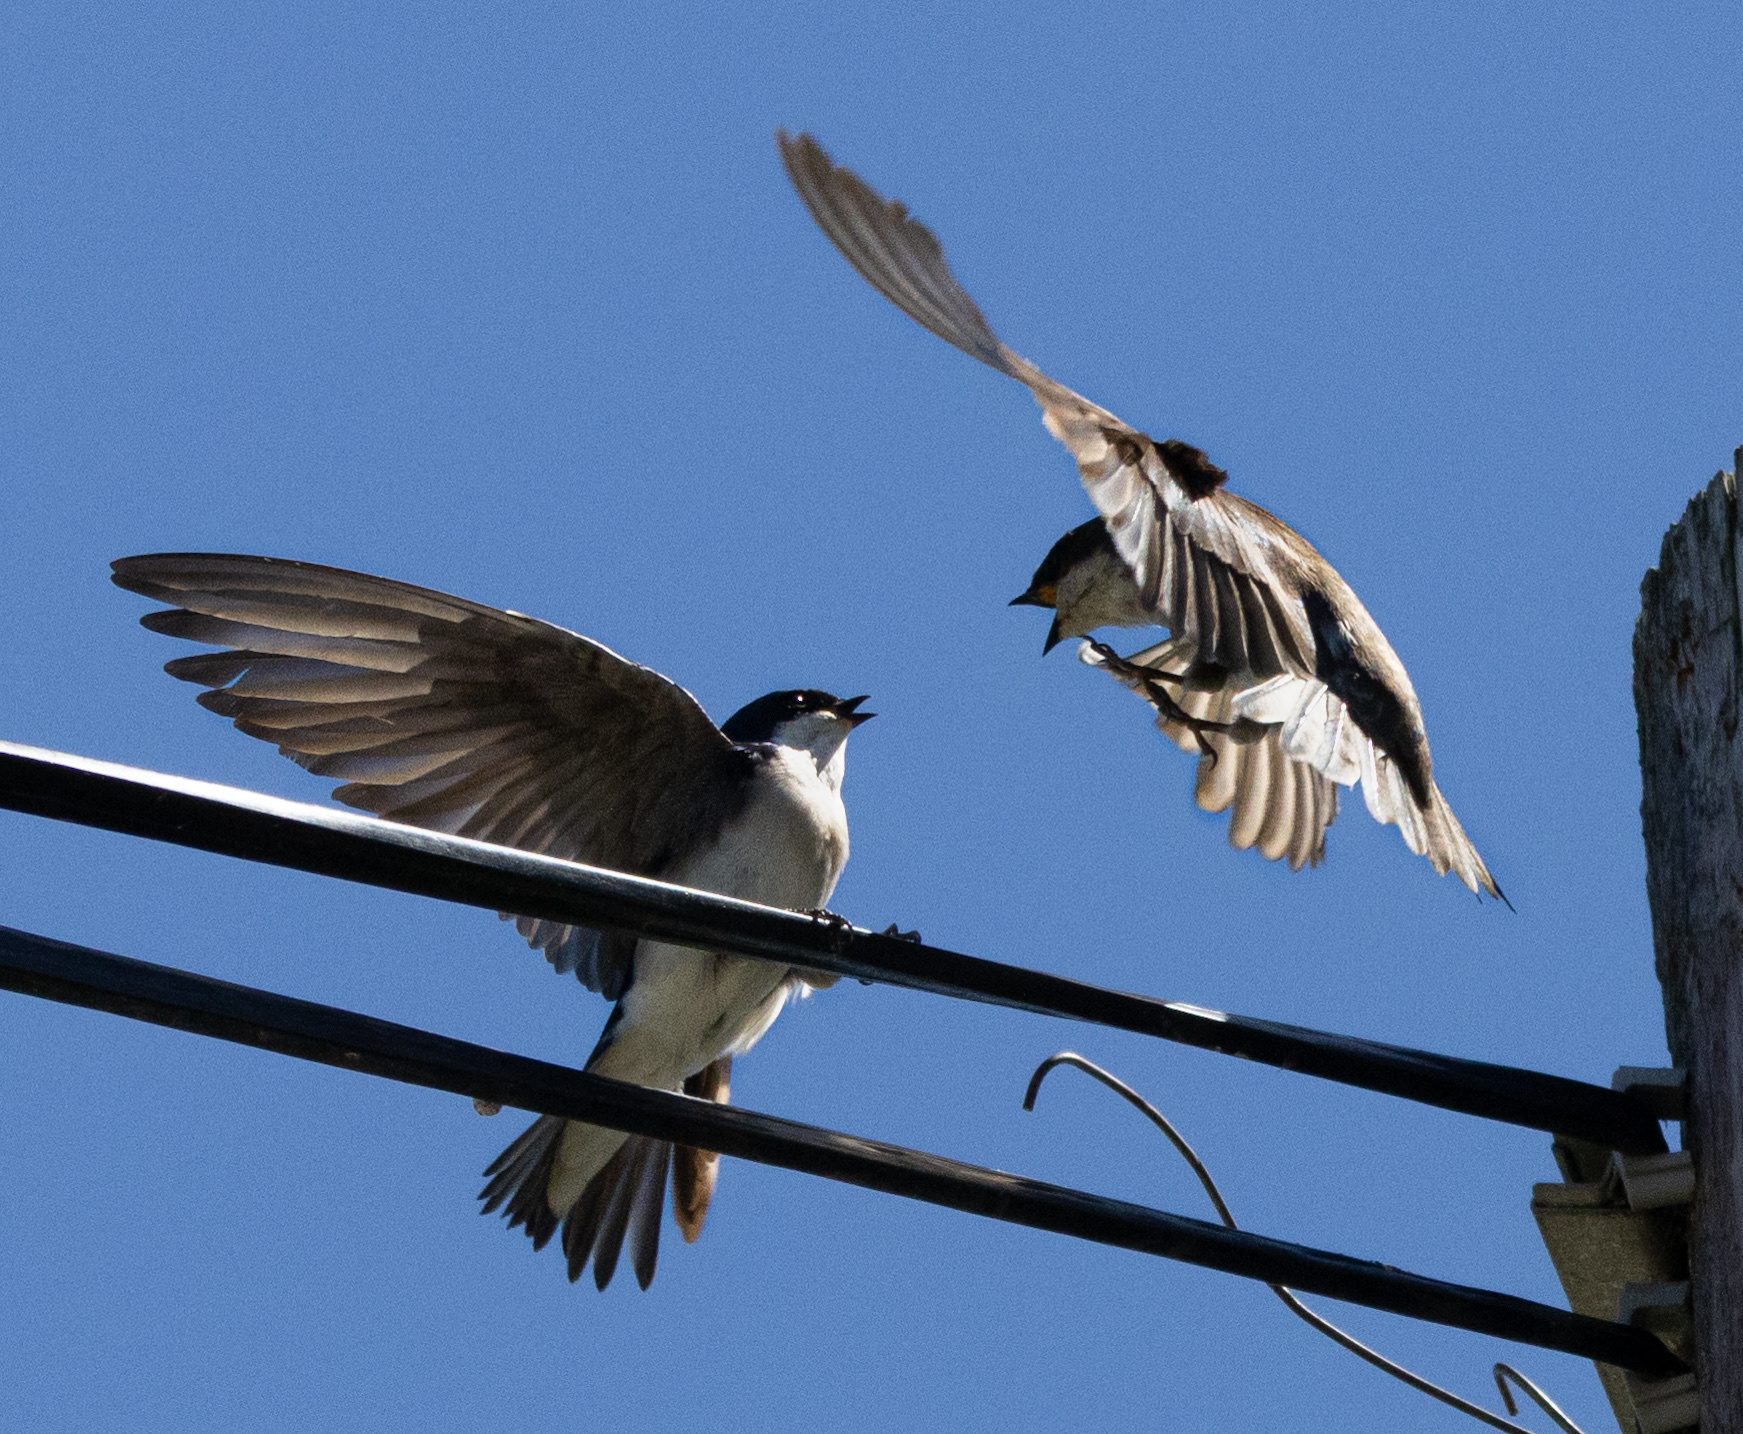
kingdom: Animalia
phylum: Chordata
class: Aves
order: Passeriformes
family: Hirundinidae
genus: Tachycineta
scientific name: Tachycineta bicolor
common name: Tree swallow
